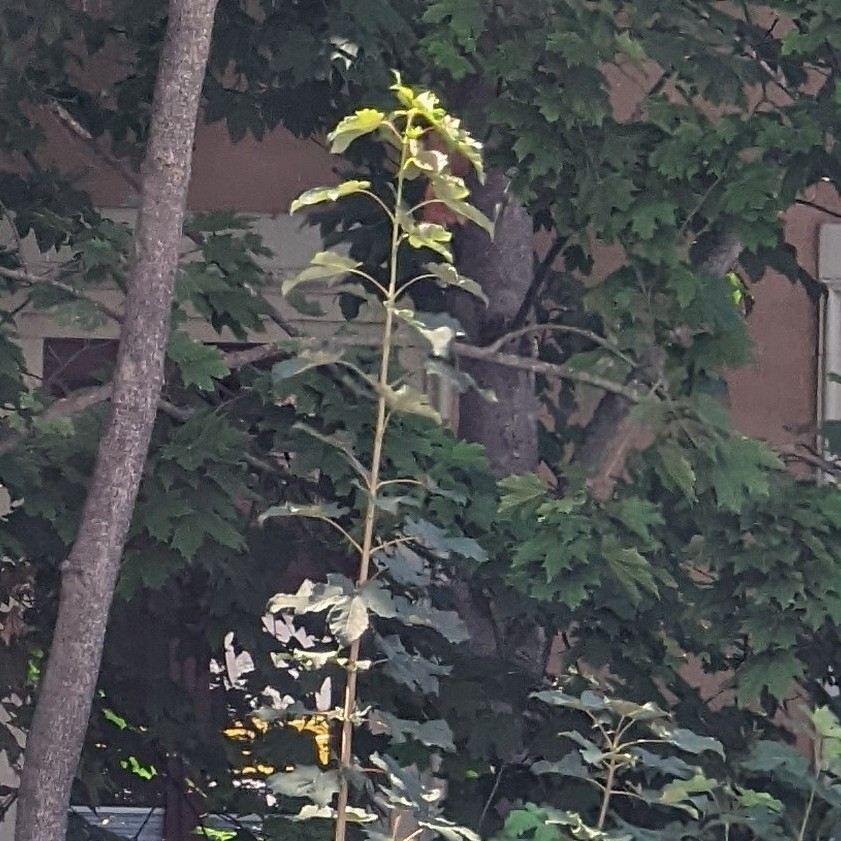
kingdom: Plantae
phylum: Tracheophyta
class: Magnoliopsida
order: Sapindales
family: Sapindaceae
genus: Acer
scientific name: Acer pseudoplatanus
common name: Sycamore
